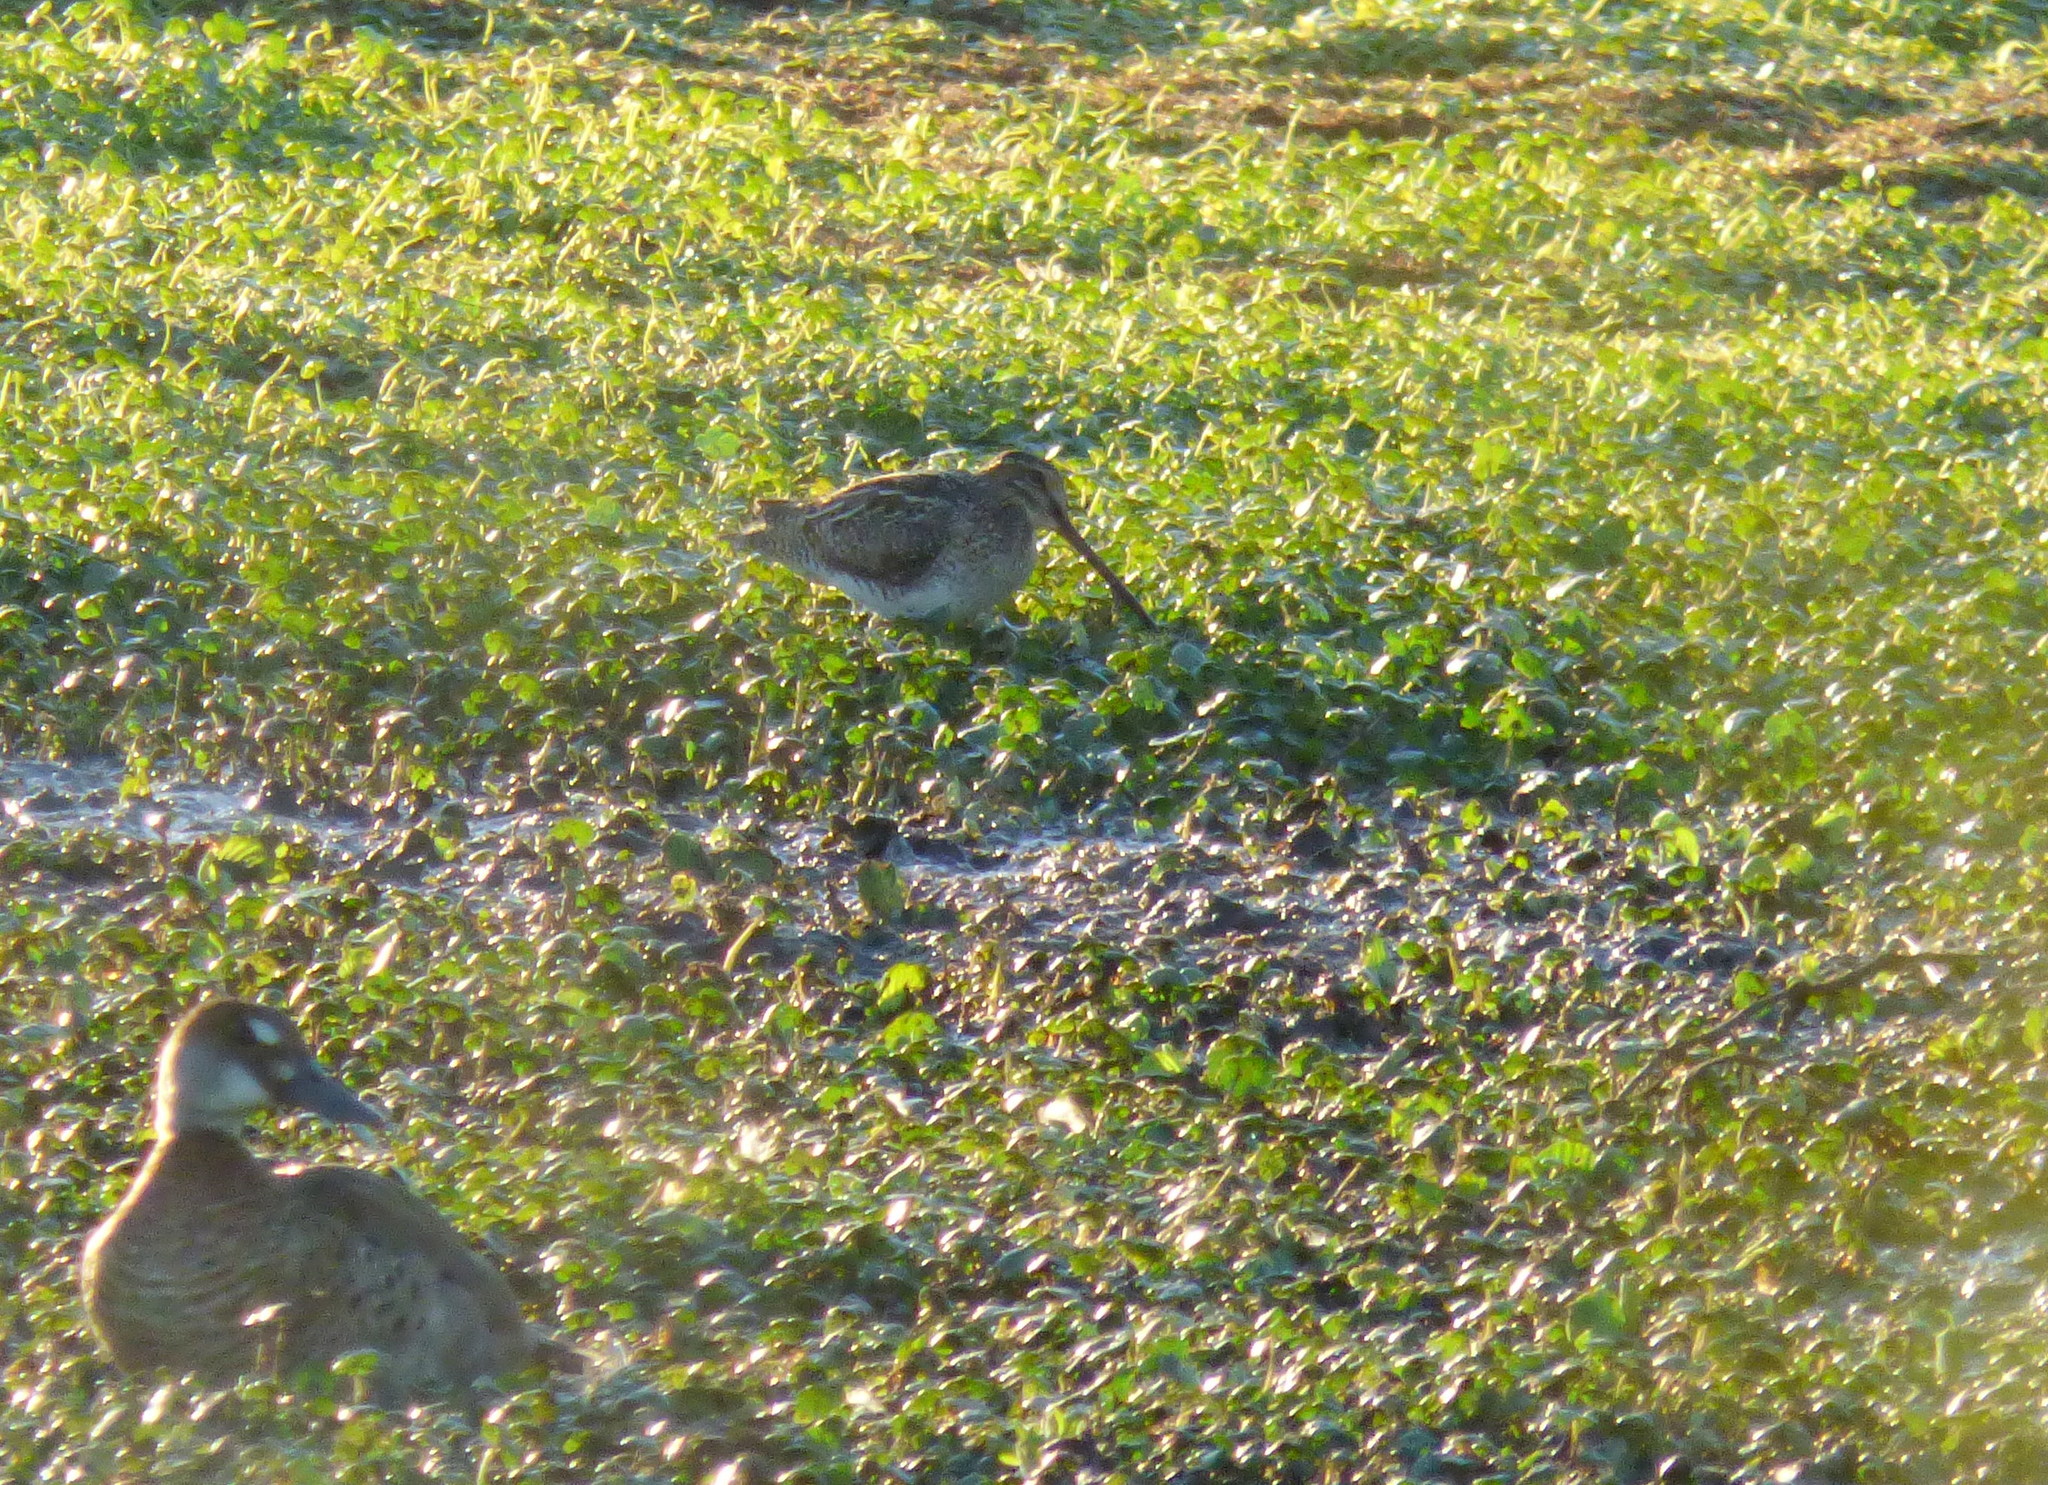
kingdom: Animalia
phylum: Chordata
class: Aves
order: Charadriiformes
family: Scolopacidae
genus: Gallinago
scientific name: Gallinago paraguaiae
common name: South american snipe
